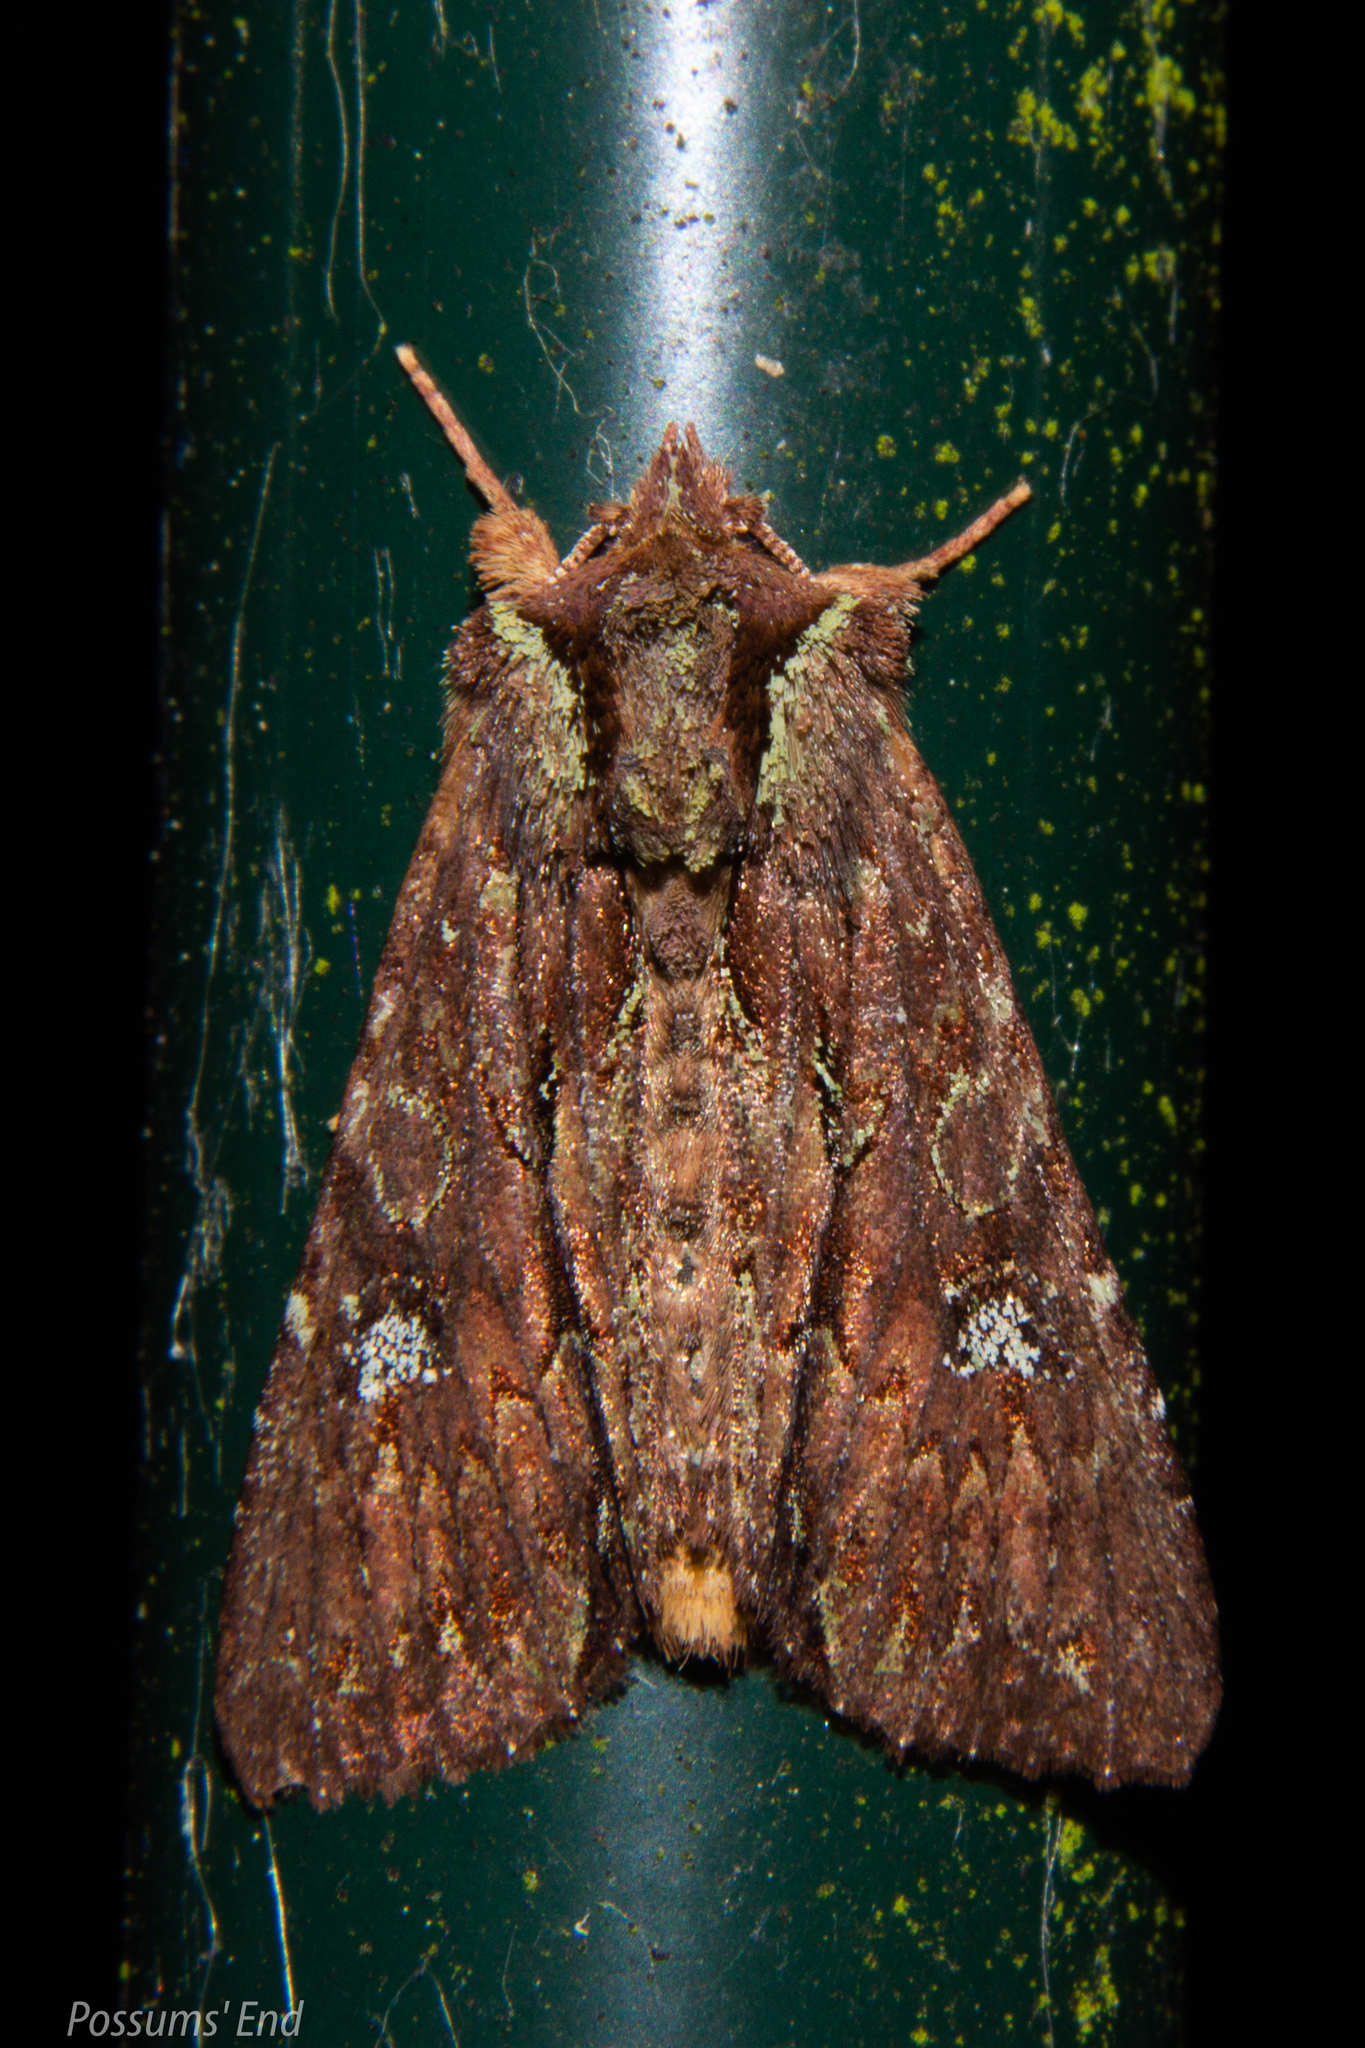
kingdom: Animalia
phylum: Arthropoda
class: Insecta
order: Lepidoptera
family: Noctuidae
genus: Meterana
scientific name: Meterana diatmeta
